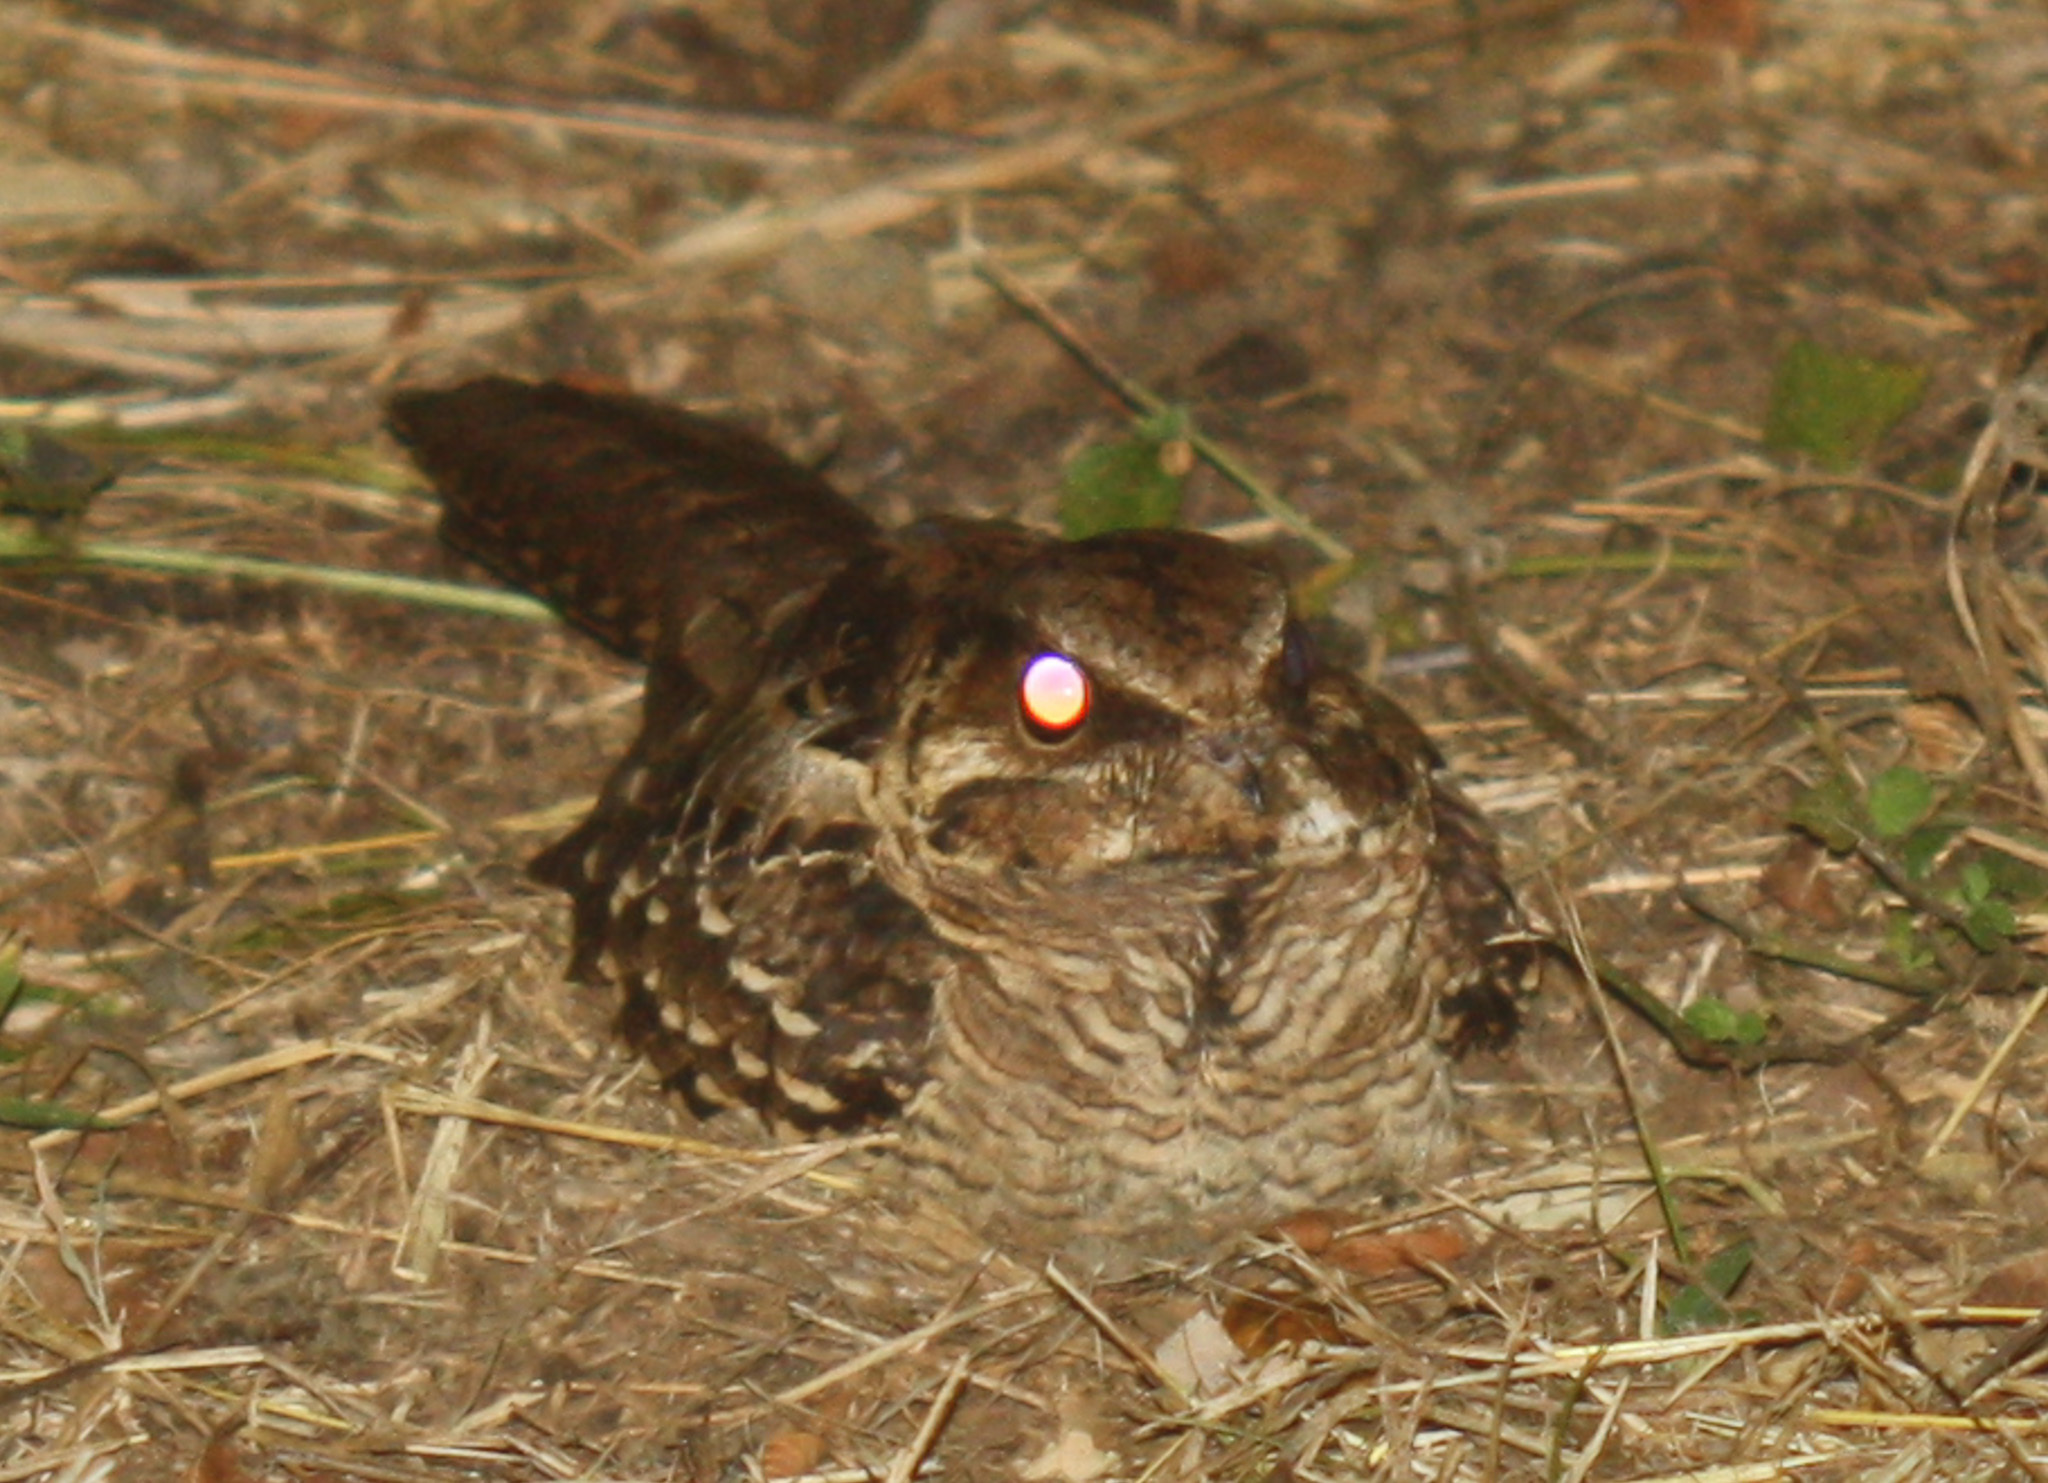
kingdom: Animalia
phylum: Chordata
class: Aves
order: Caprimulgiformes
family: Caprimulgidae
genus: Nyctidromus
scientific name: Nyctidromus albicollis
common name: Pauraque
